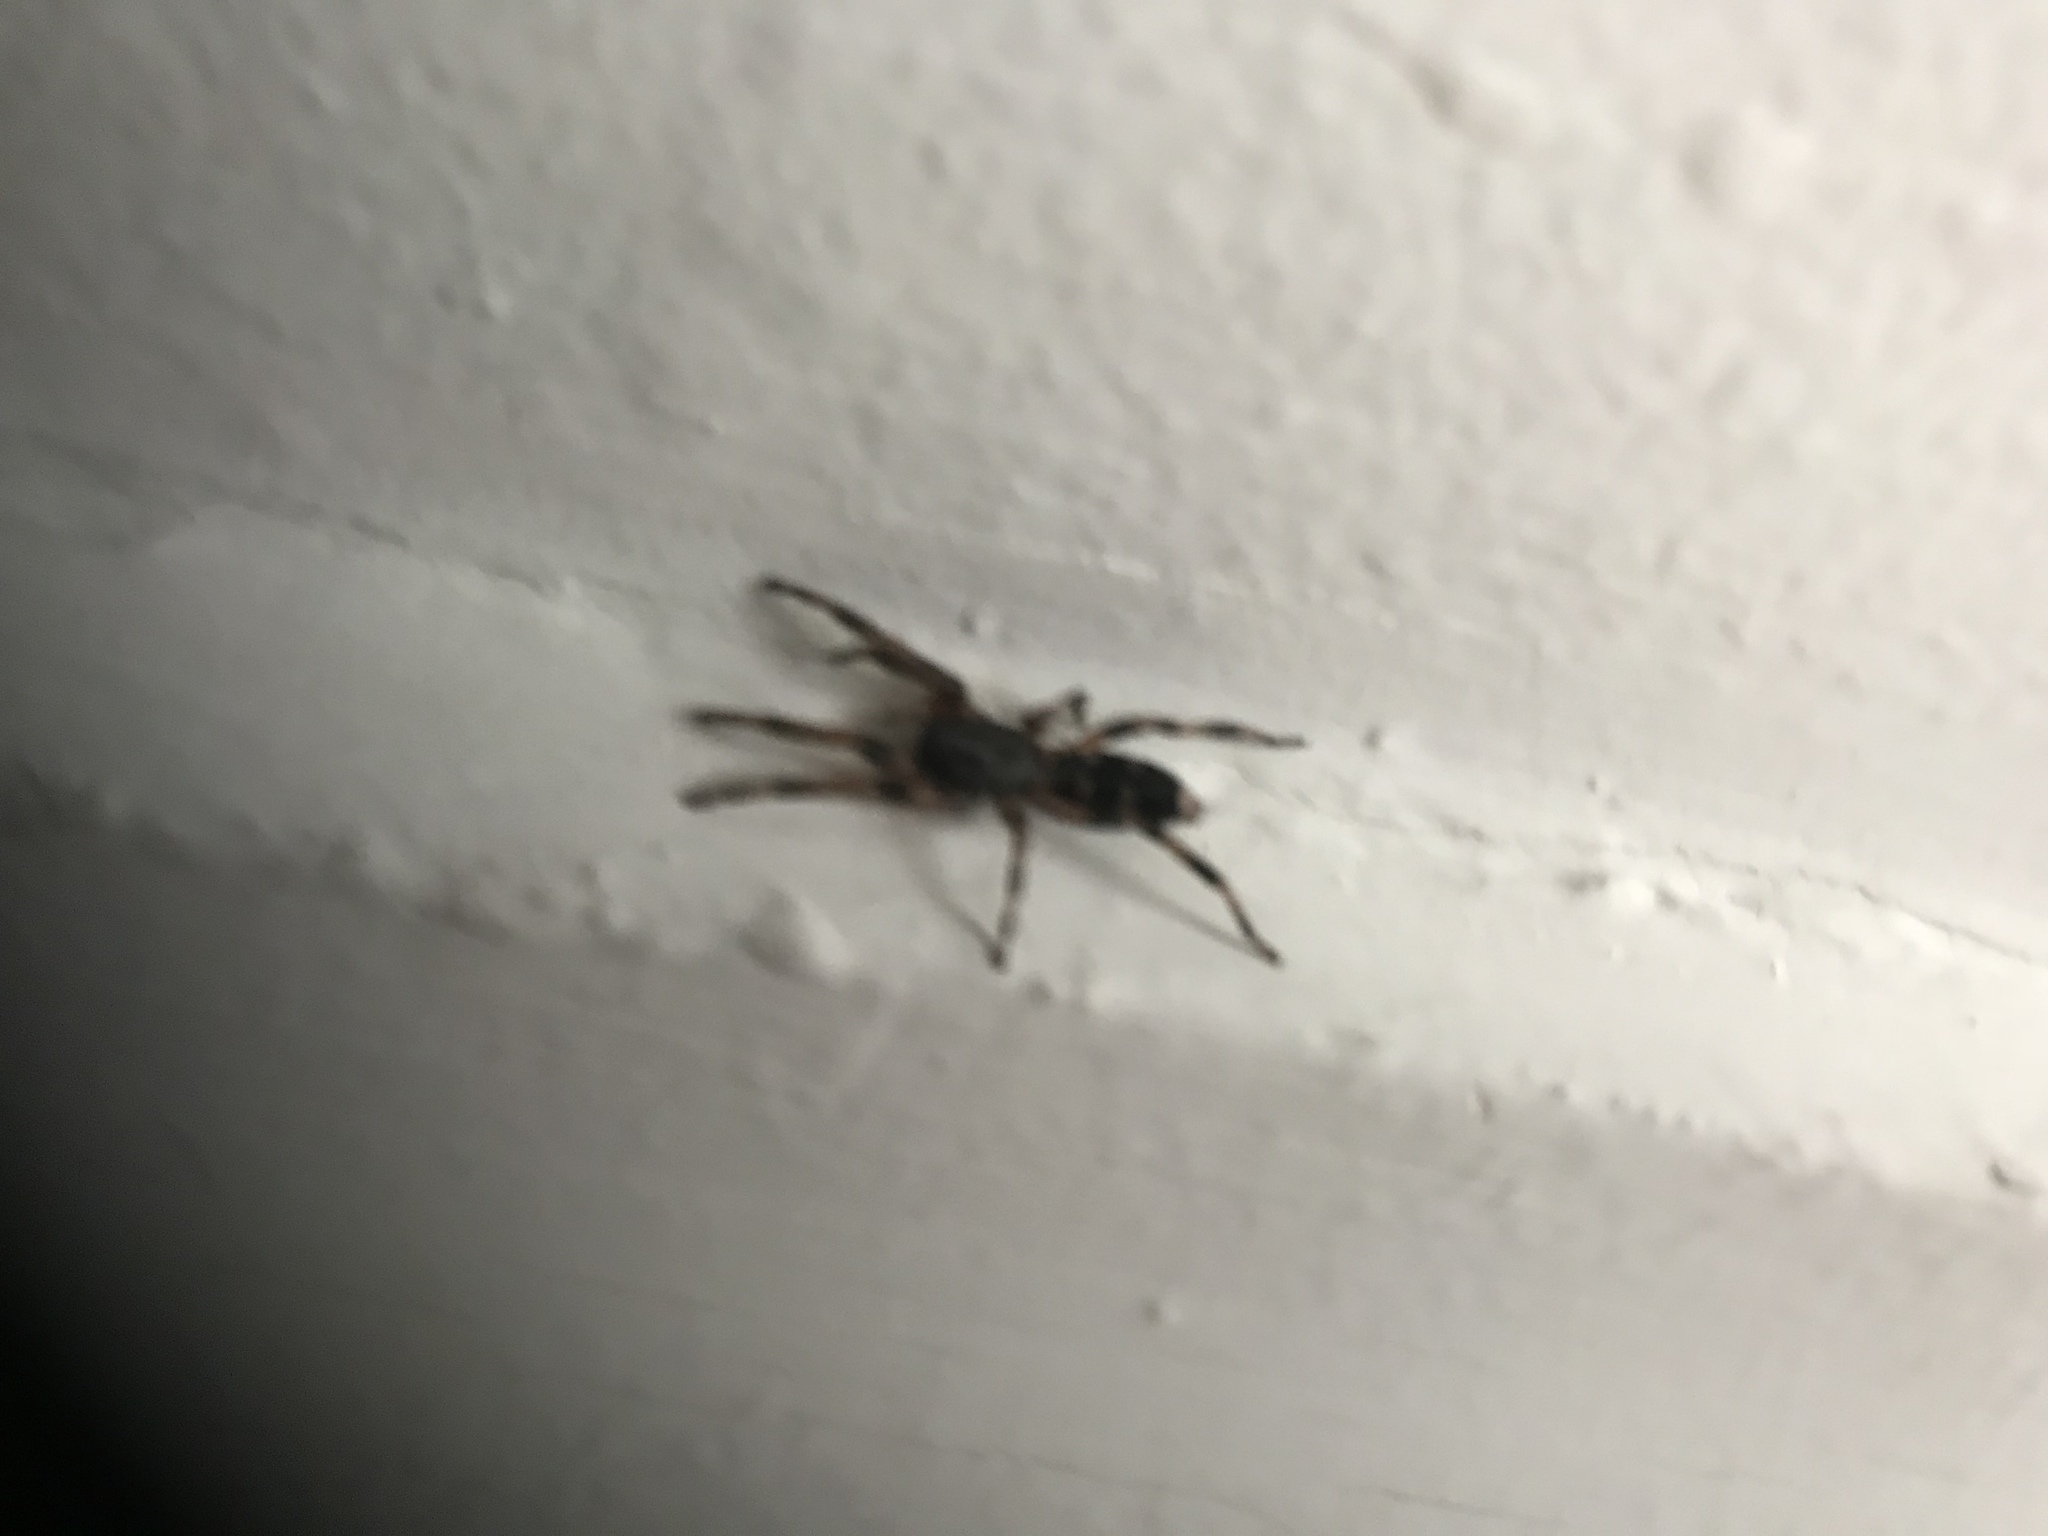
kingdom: Animalia
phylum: Arthropoda
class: Arachnida
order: Araneae
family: Lamponidae
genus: Lampona
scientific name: Lampona murina
